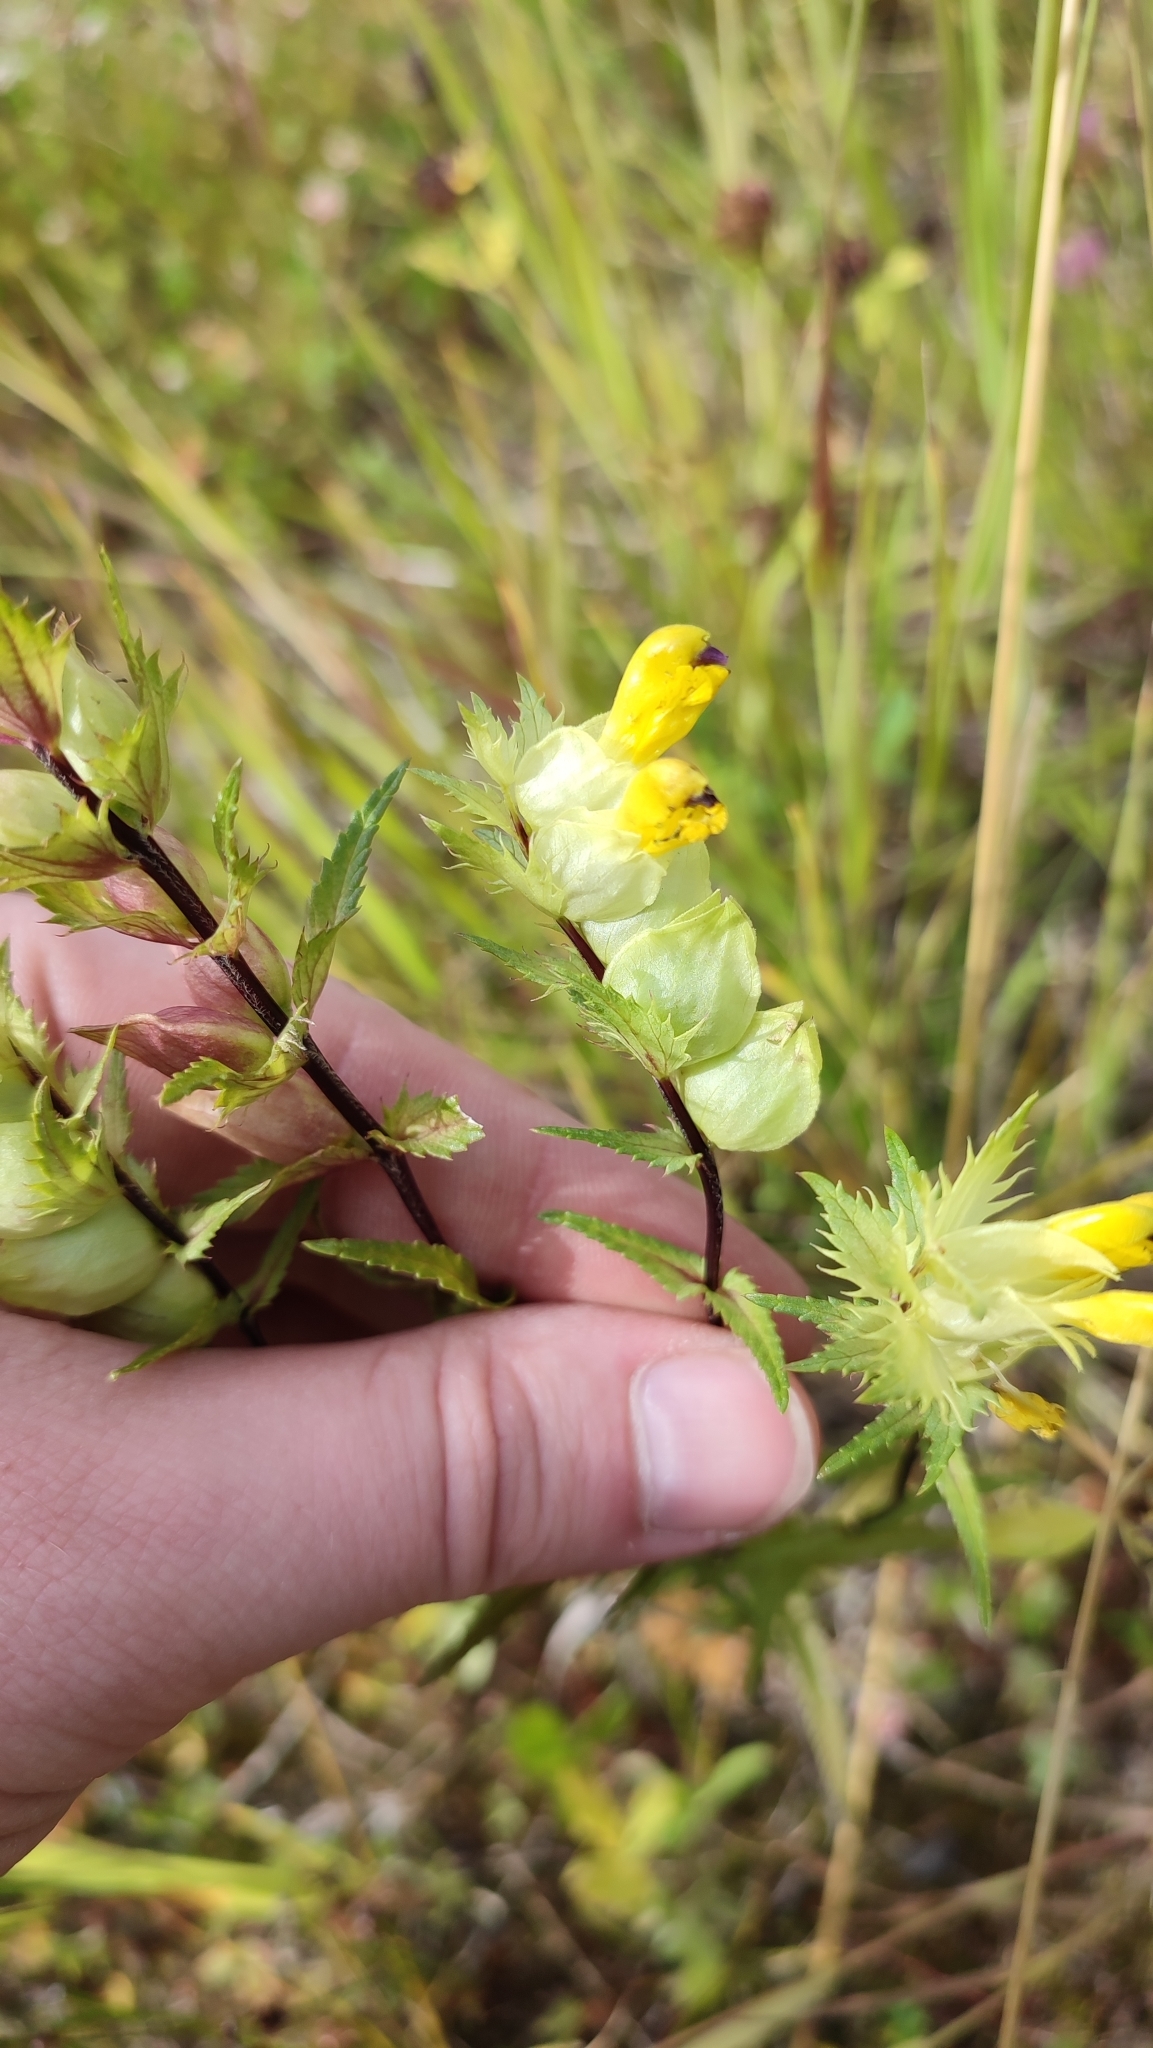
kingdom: Plantae
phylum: Tracheophyta
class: Magnoliopsida
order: Lamiales
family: Orobanchaceae
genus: Rhinanthus
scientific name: Rhinanthus serotinus
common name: Late-flowering yellow rattle
